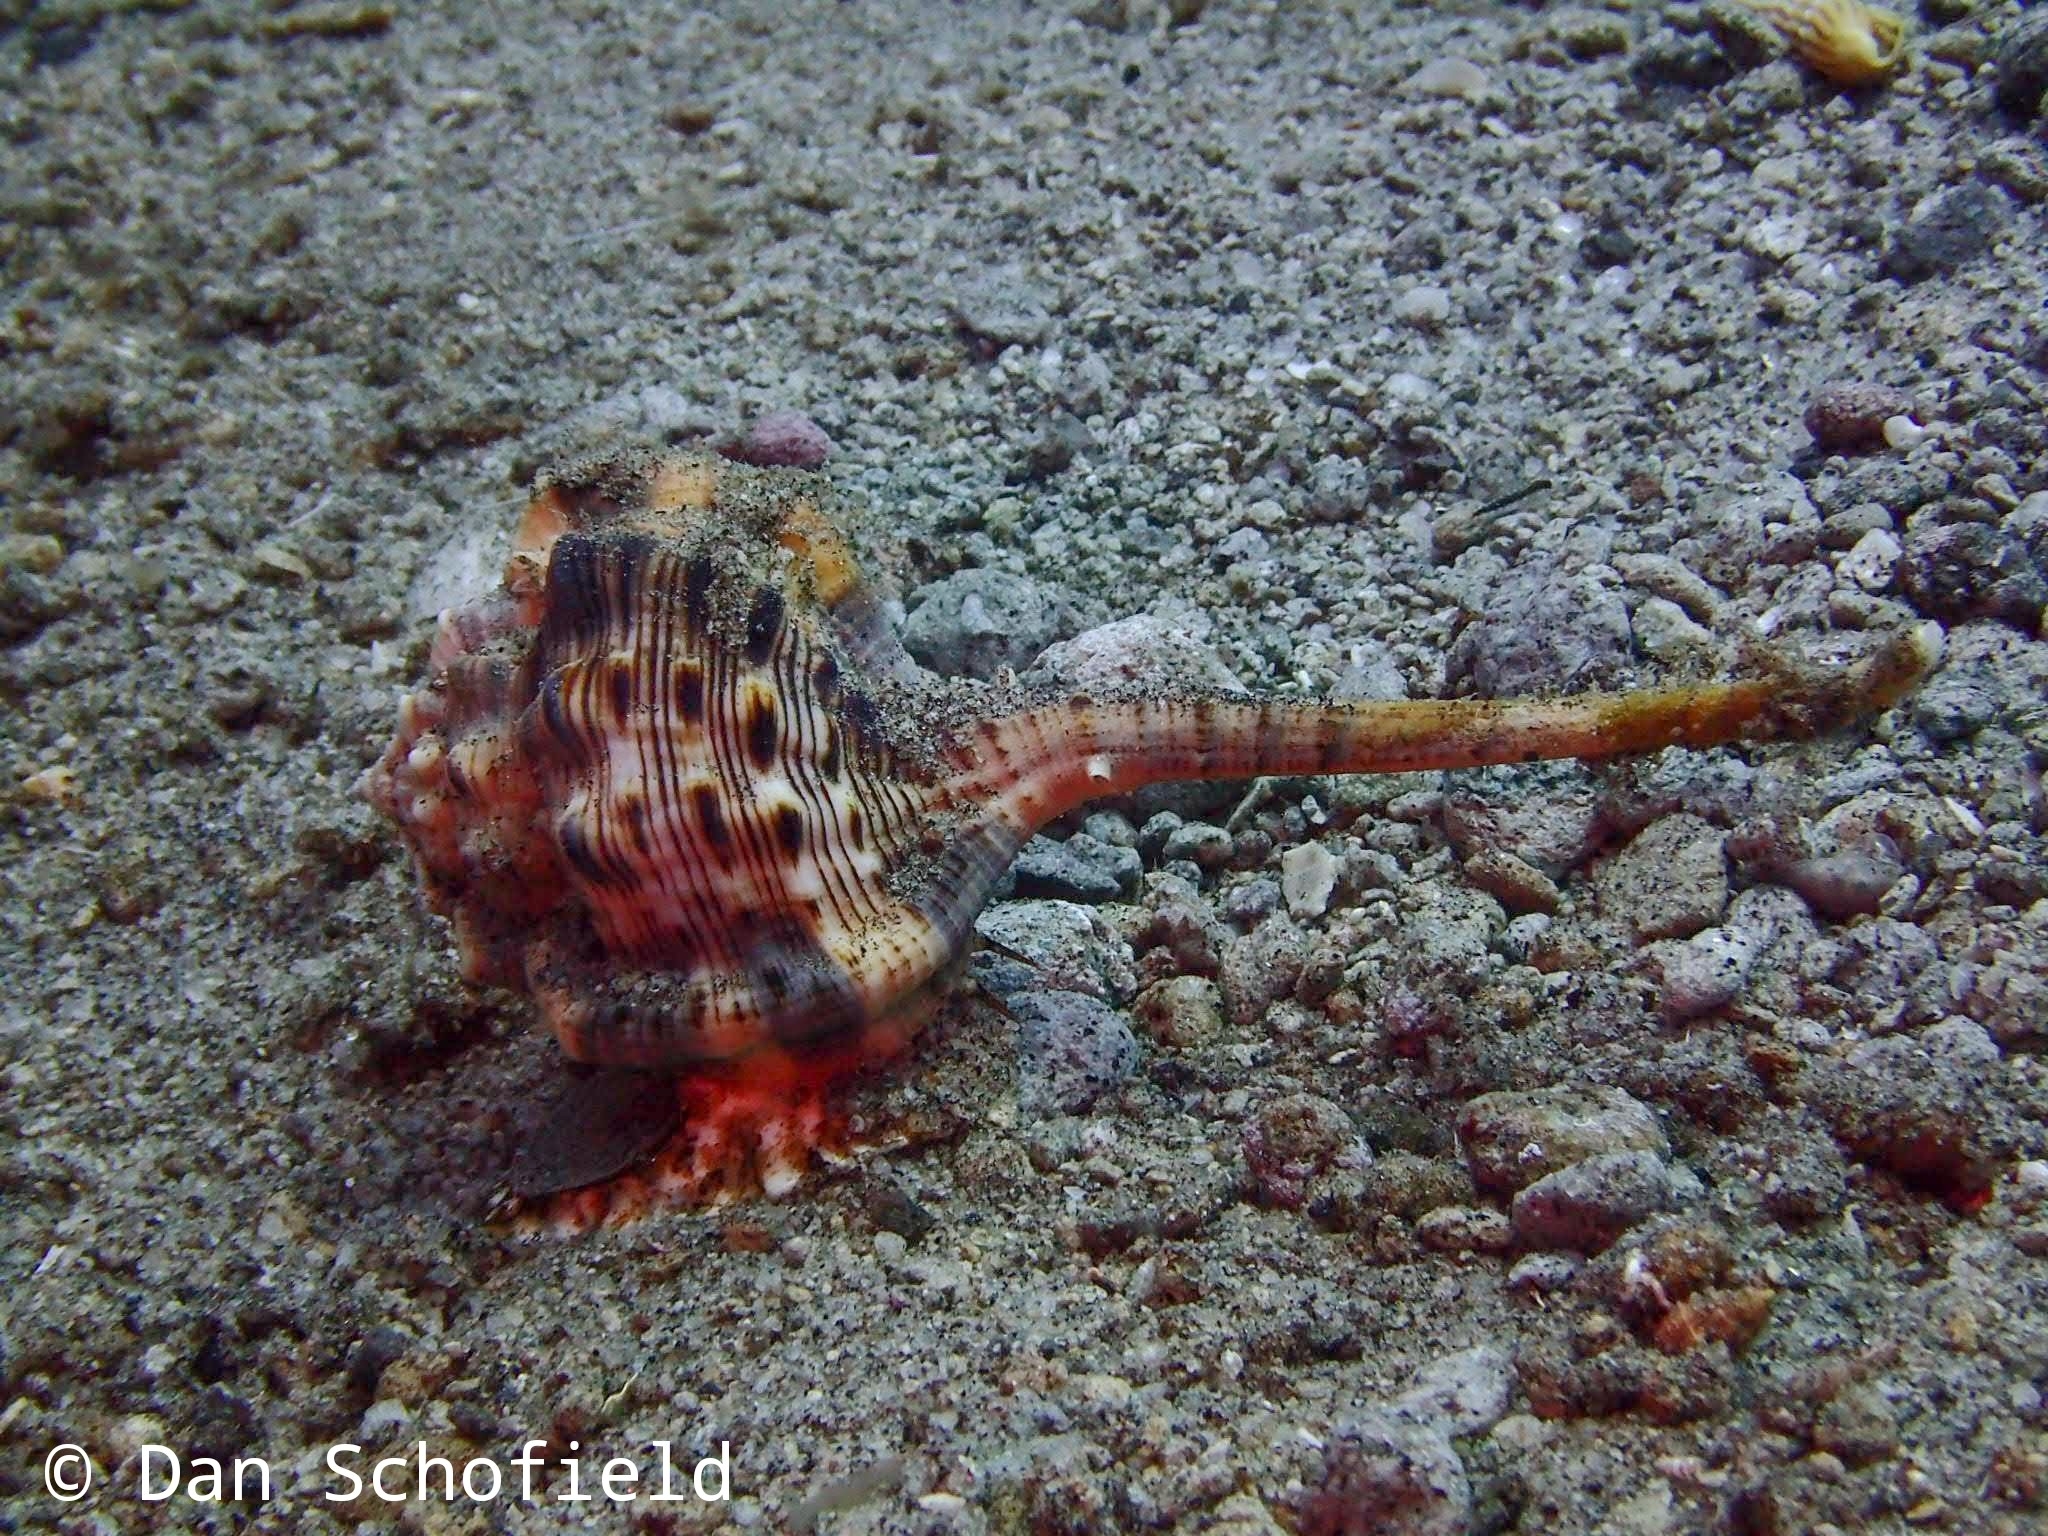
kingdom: Animalia
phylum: Mollusca
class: Gastropoda
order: Neogastropoda
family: Muricidae
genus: Haustellum
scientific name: Haustellum haustellum
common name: Snipe's bill murex
